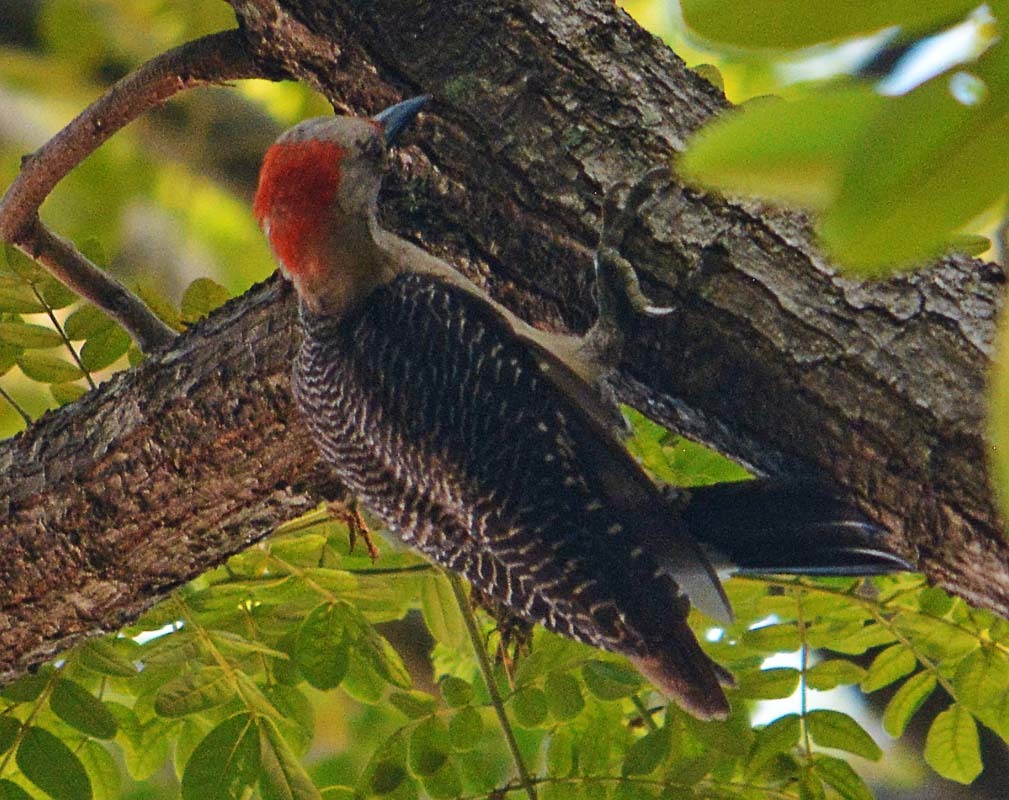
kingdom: Animalia
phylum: Chordata
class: Aves
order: Piciformes
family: Picidae
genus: Melanerpes
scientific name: Melanerpes aurifrons
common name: Golden-fronted woodpecker
